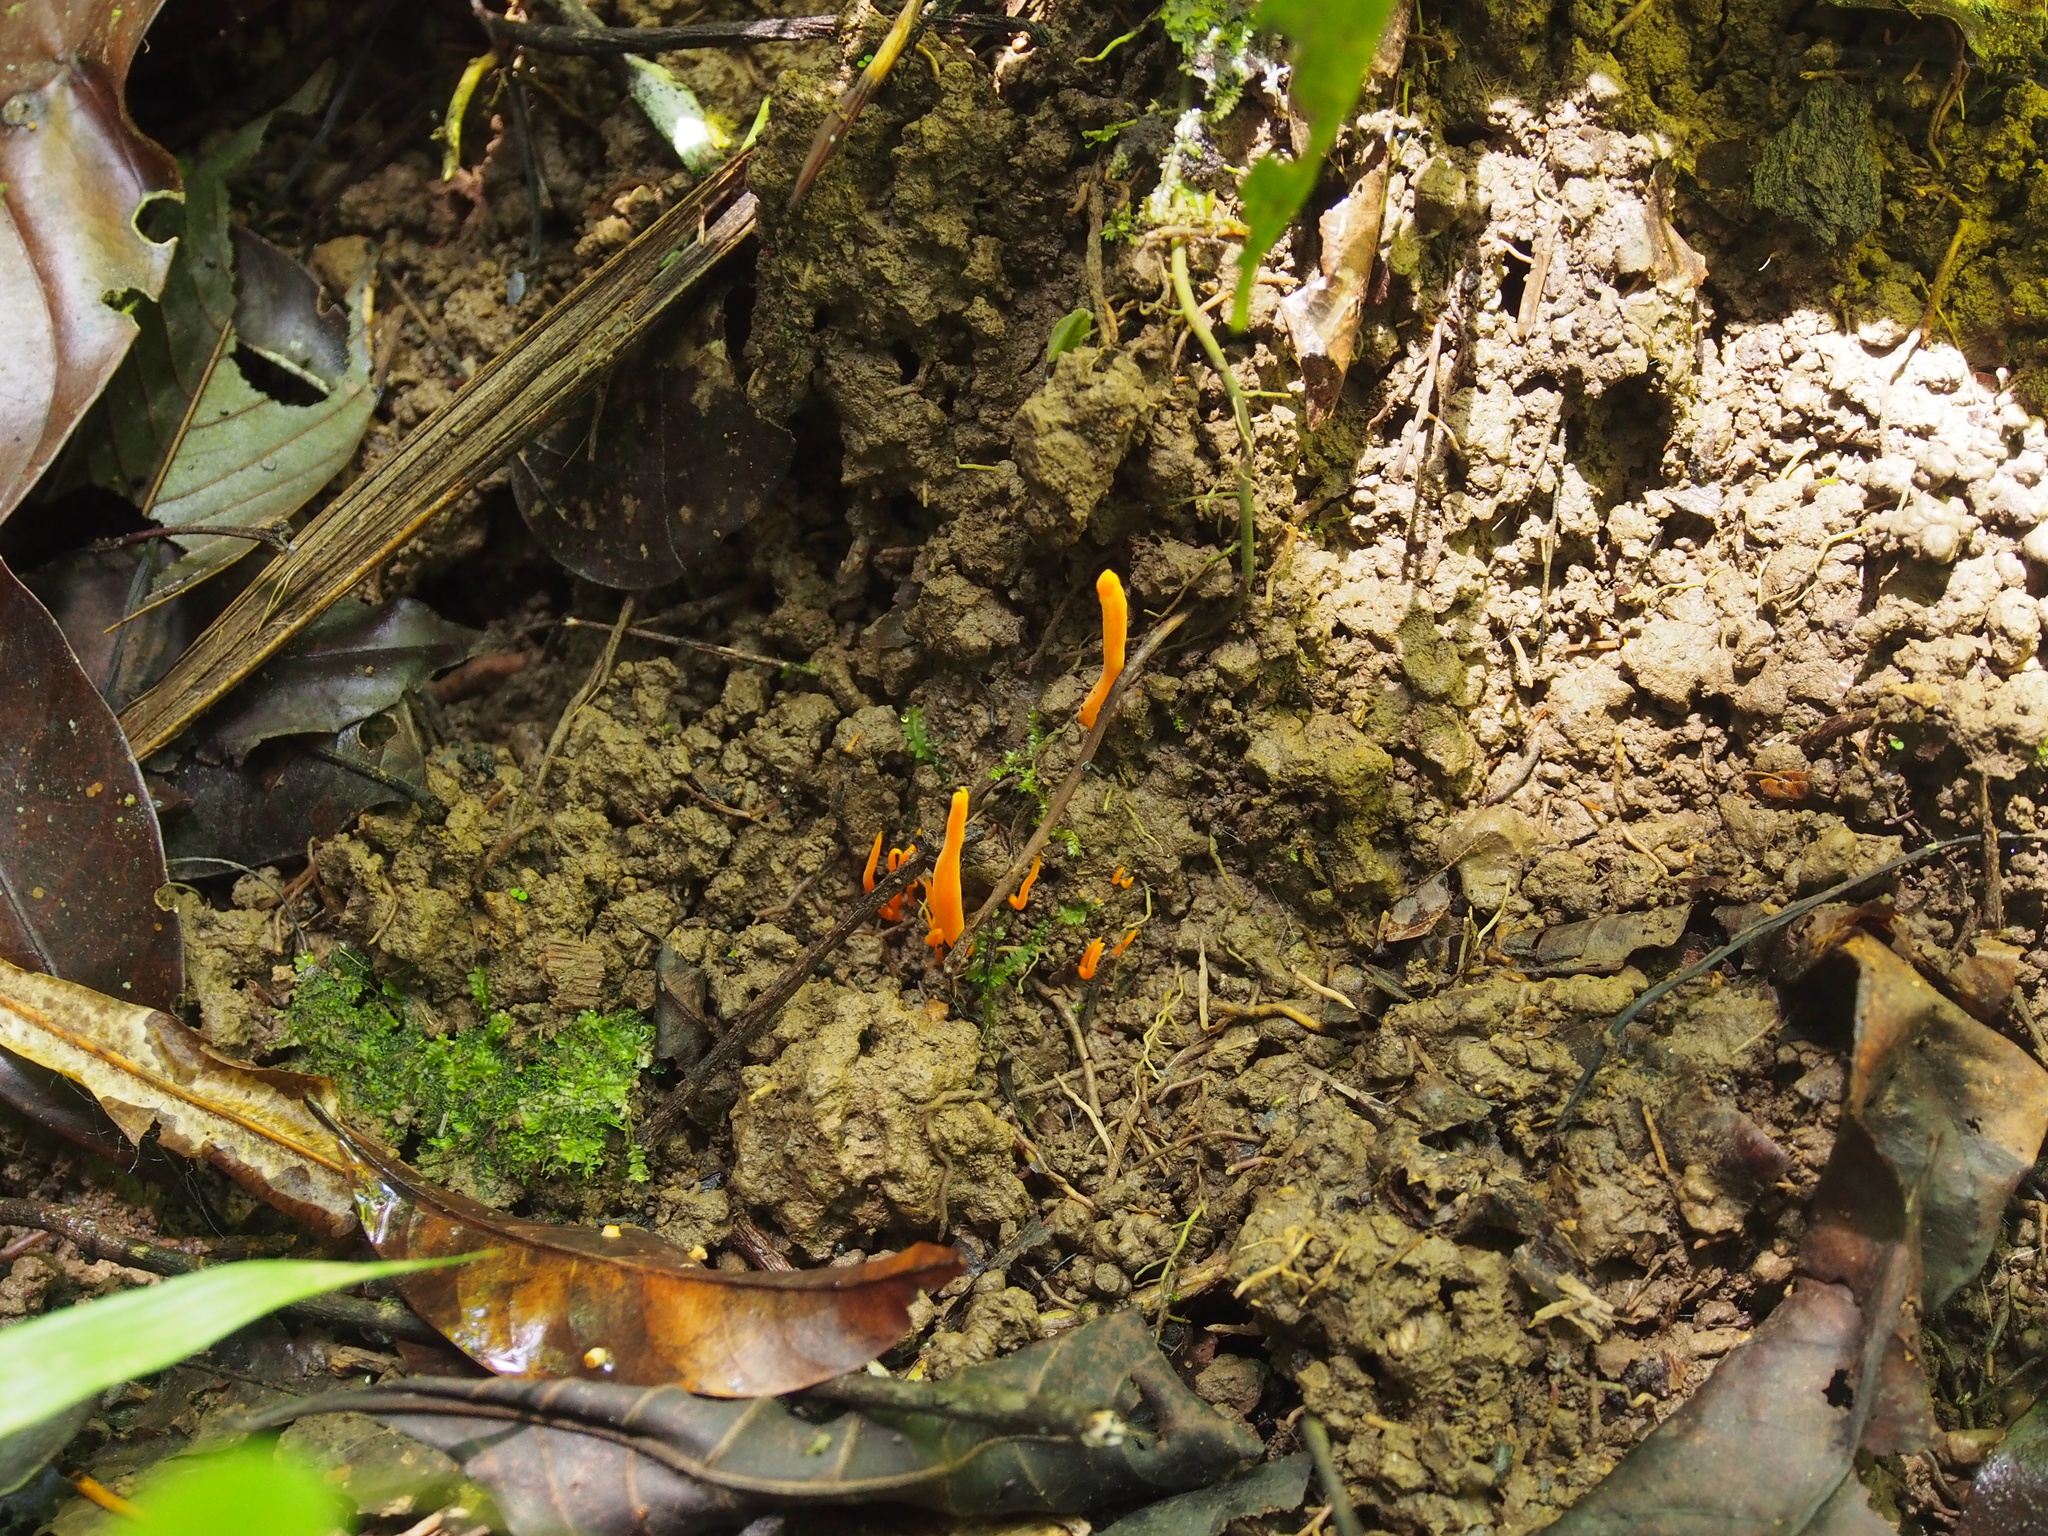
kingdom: Fungi
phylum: Basidiomycota
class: Agaricomycetes
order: Agaricales
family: Clavariaceae
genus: Clavulinopsis
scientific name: Clavulinopsis fusiformis
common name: Golden spindles
